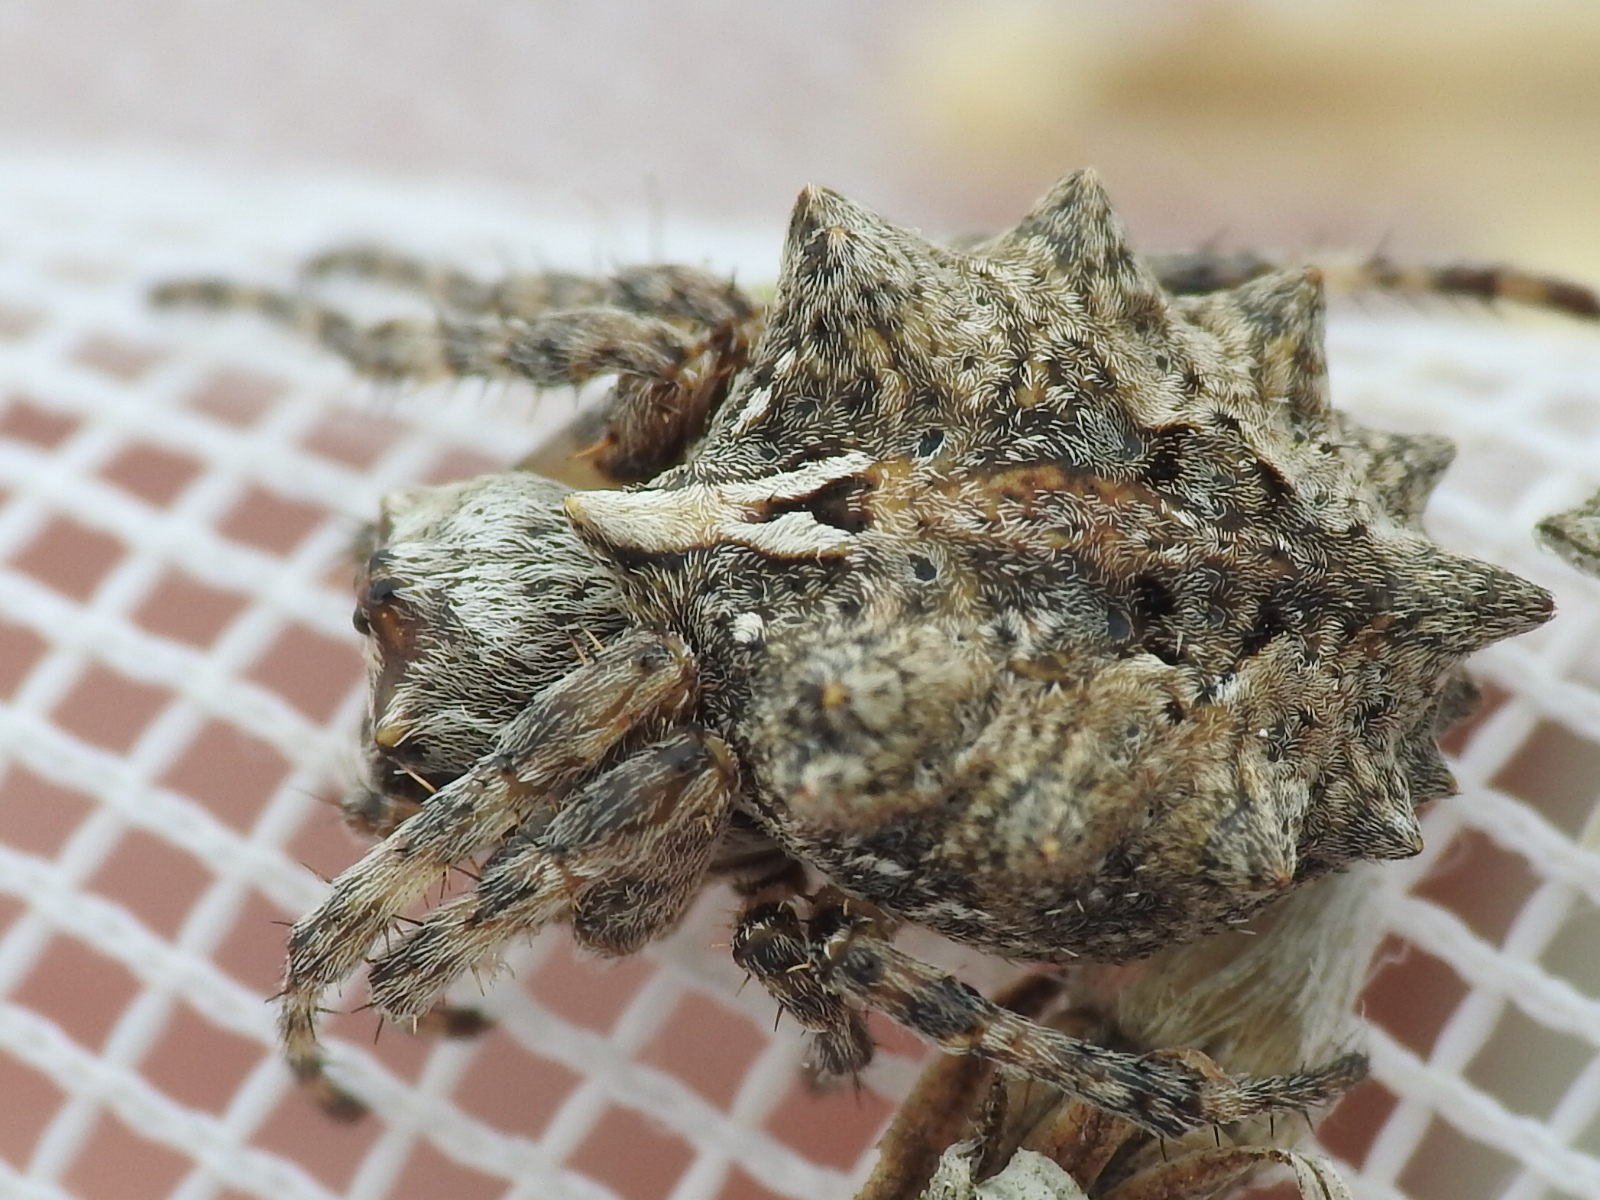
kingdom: Animalia
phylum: Arthropoda
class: Arachnida
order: Araneae
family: Araneidae
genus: Acanthepeira
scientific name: Acanthepeira stellata
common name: Starbellied orbweaver
